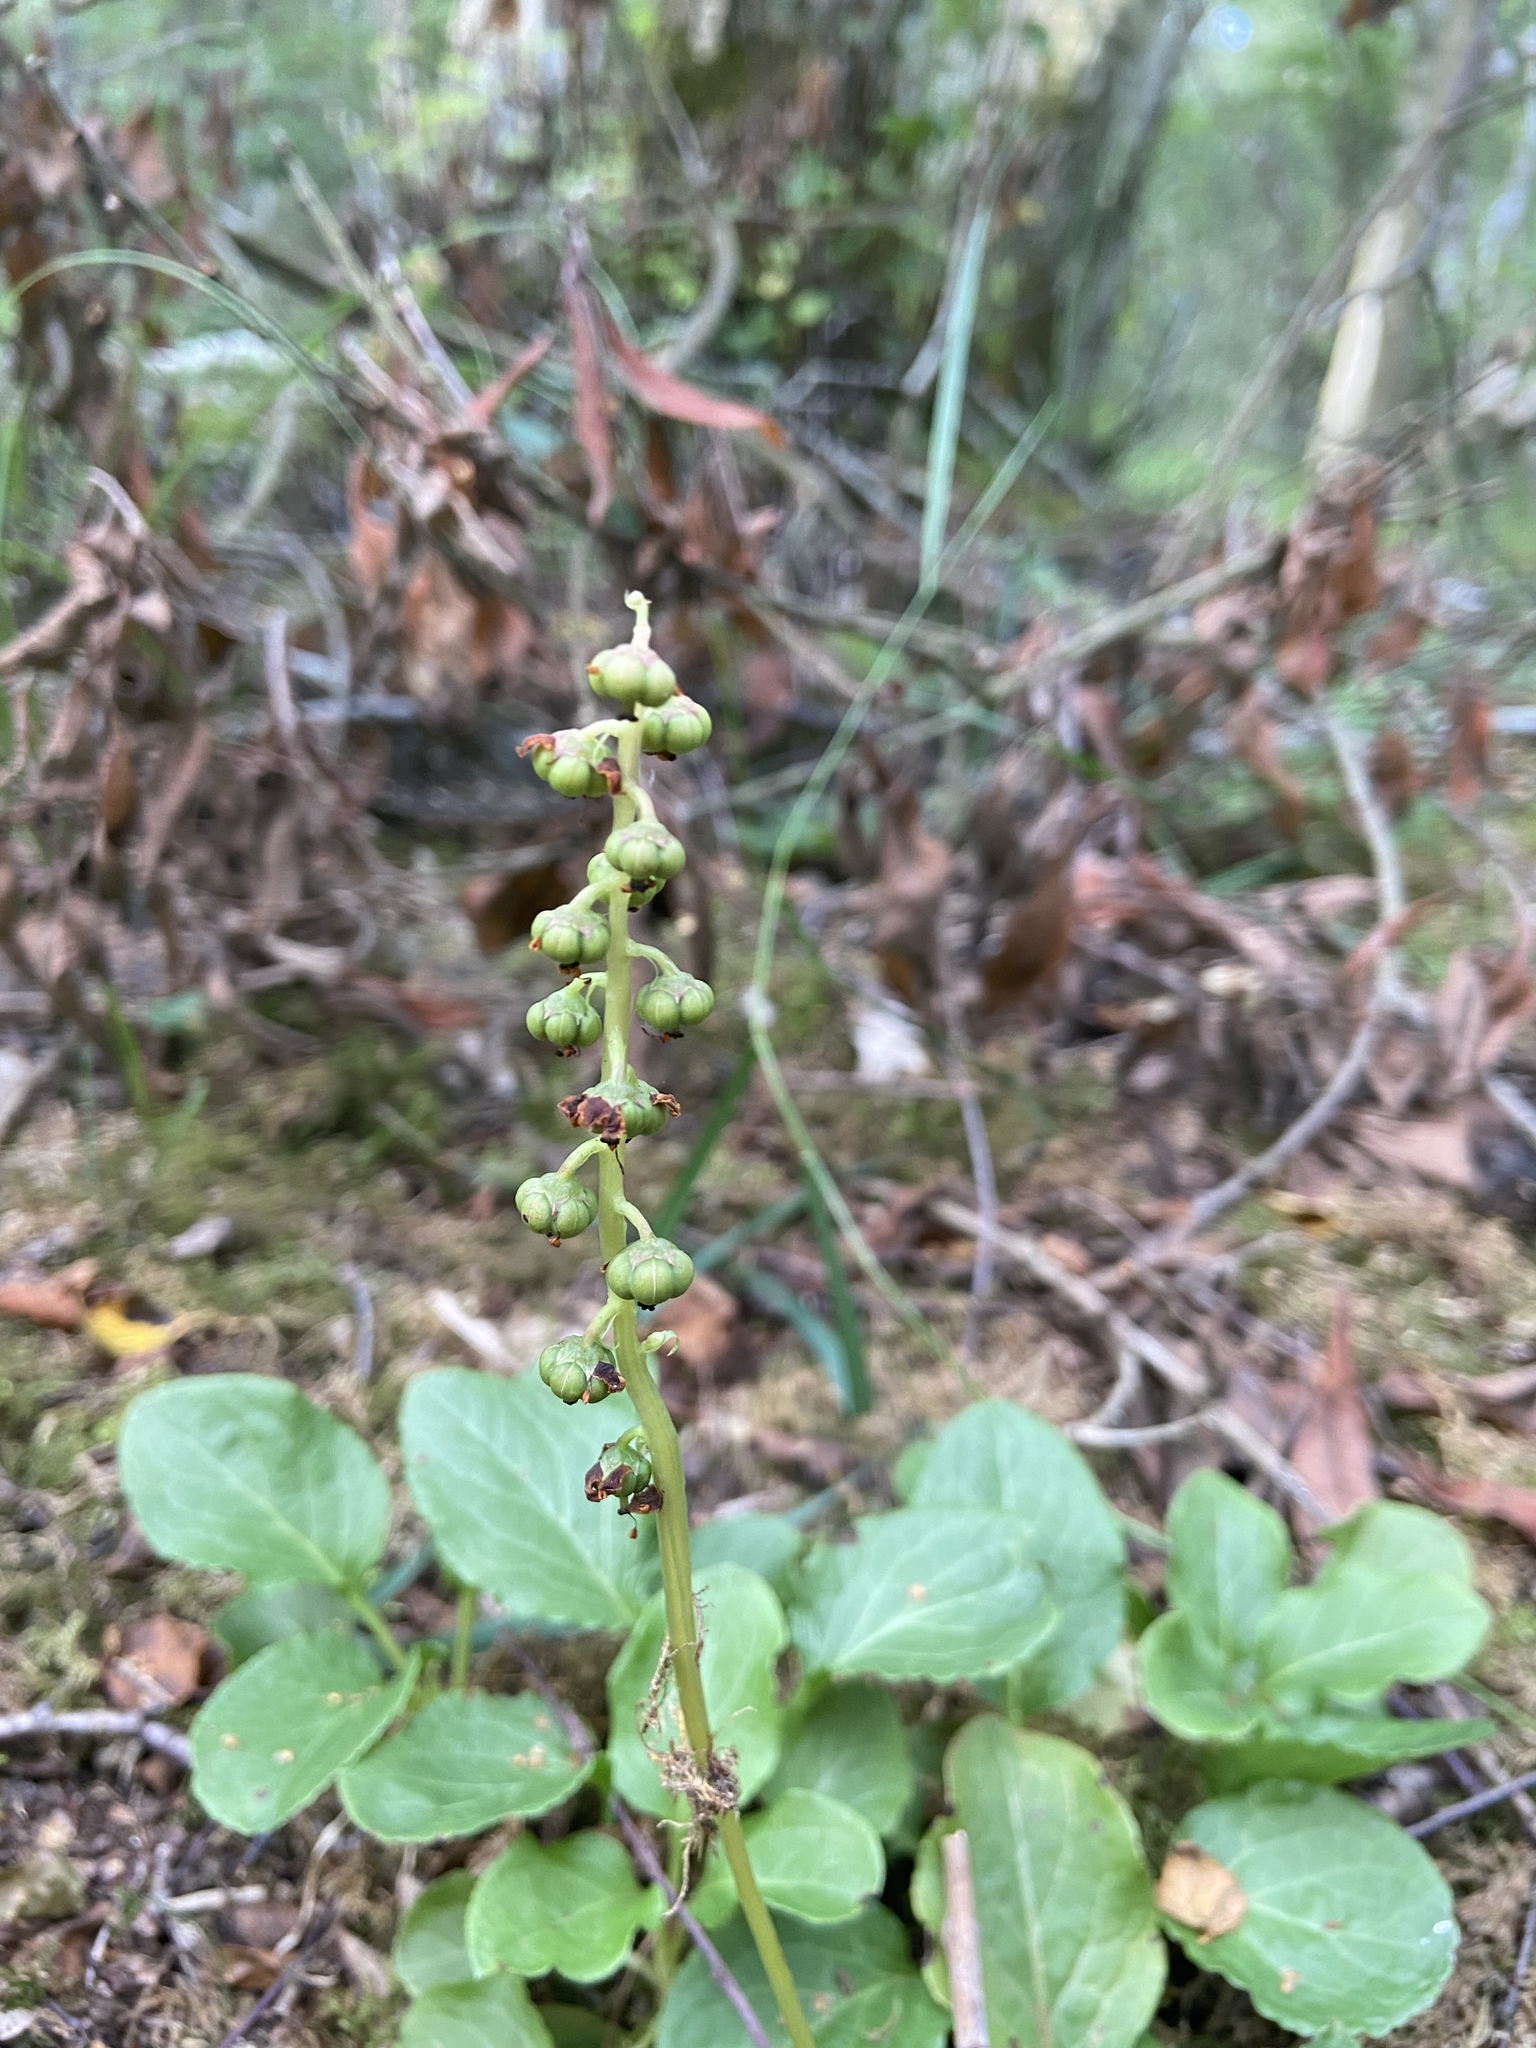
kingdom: Plantae
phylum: Tracheophyta
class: Magnoliopsida
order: Ericales
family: Ericaceae
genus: Pyrola
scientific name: Pyrola minor
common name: Common wintergreen
